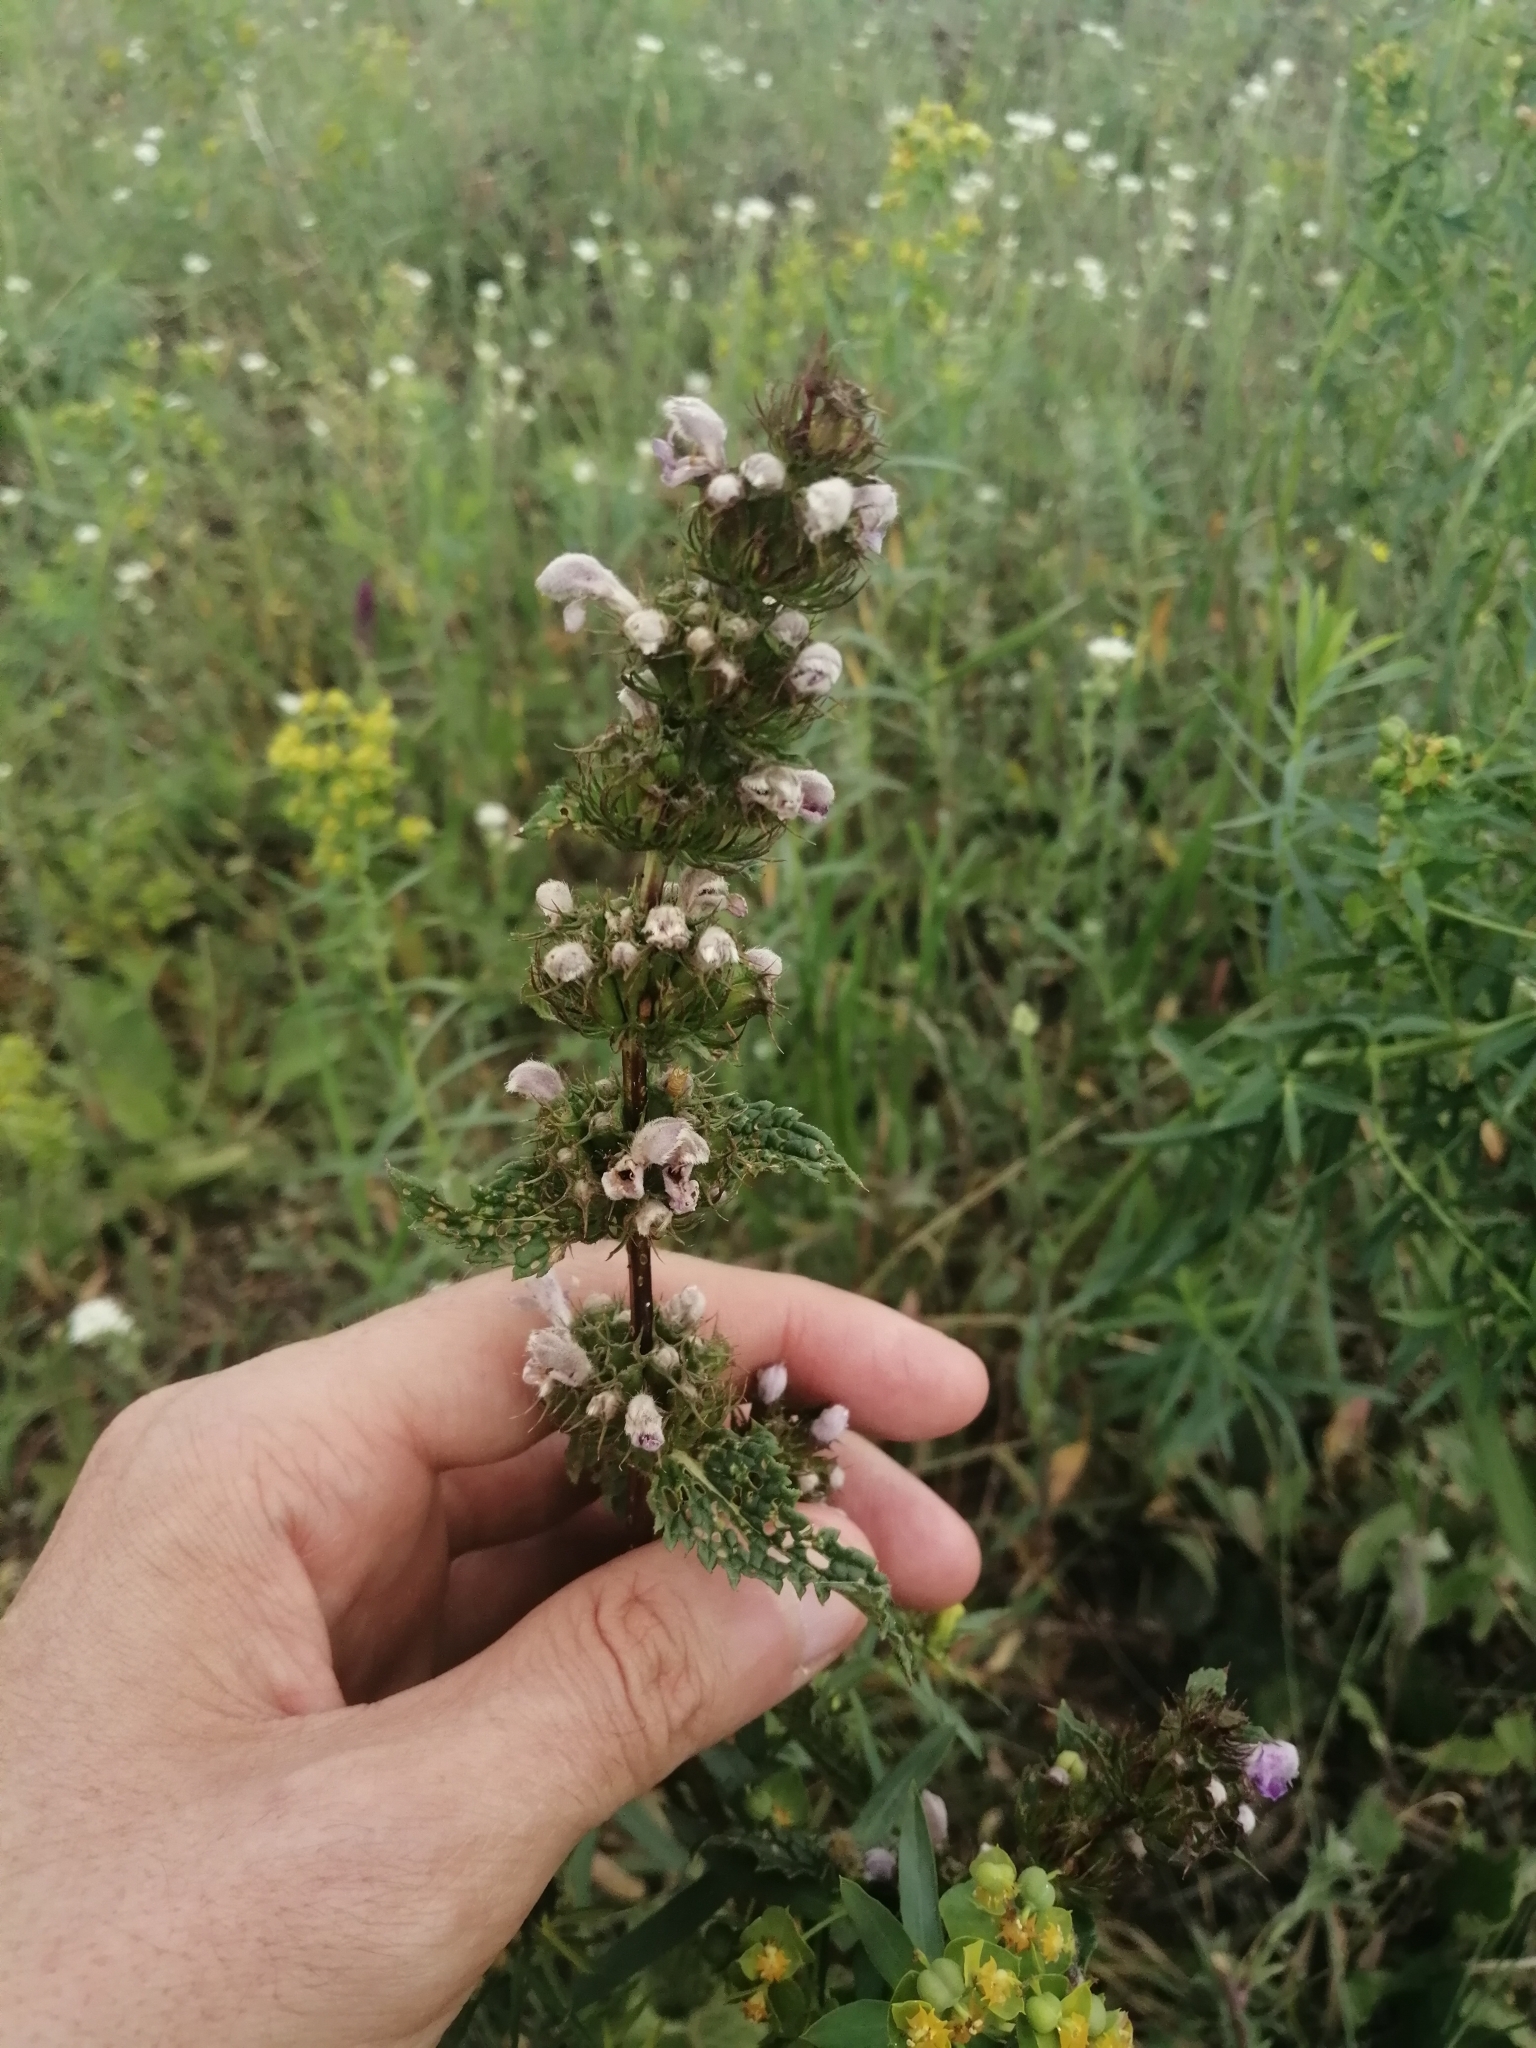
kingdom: Plantae
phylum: Tracheophyta
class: Magnoliopsida
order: Lamiales
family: Lamiaceae
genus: Phlomoides
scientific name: Phlomoides tuberosa
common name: Tuberous jerusalem sage
